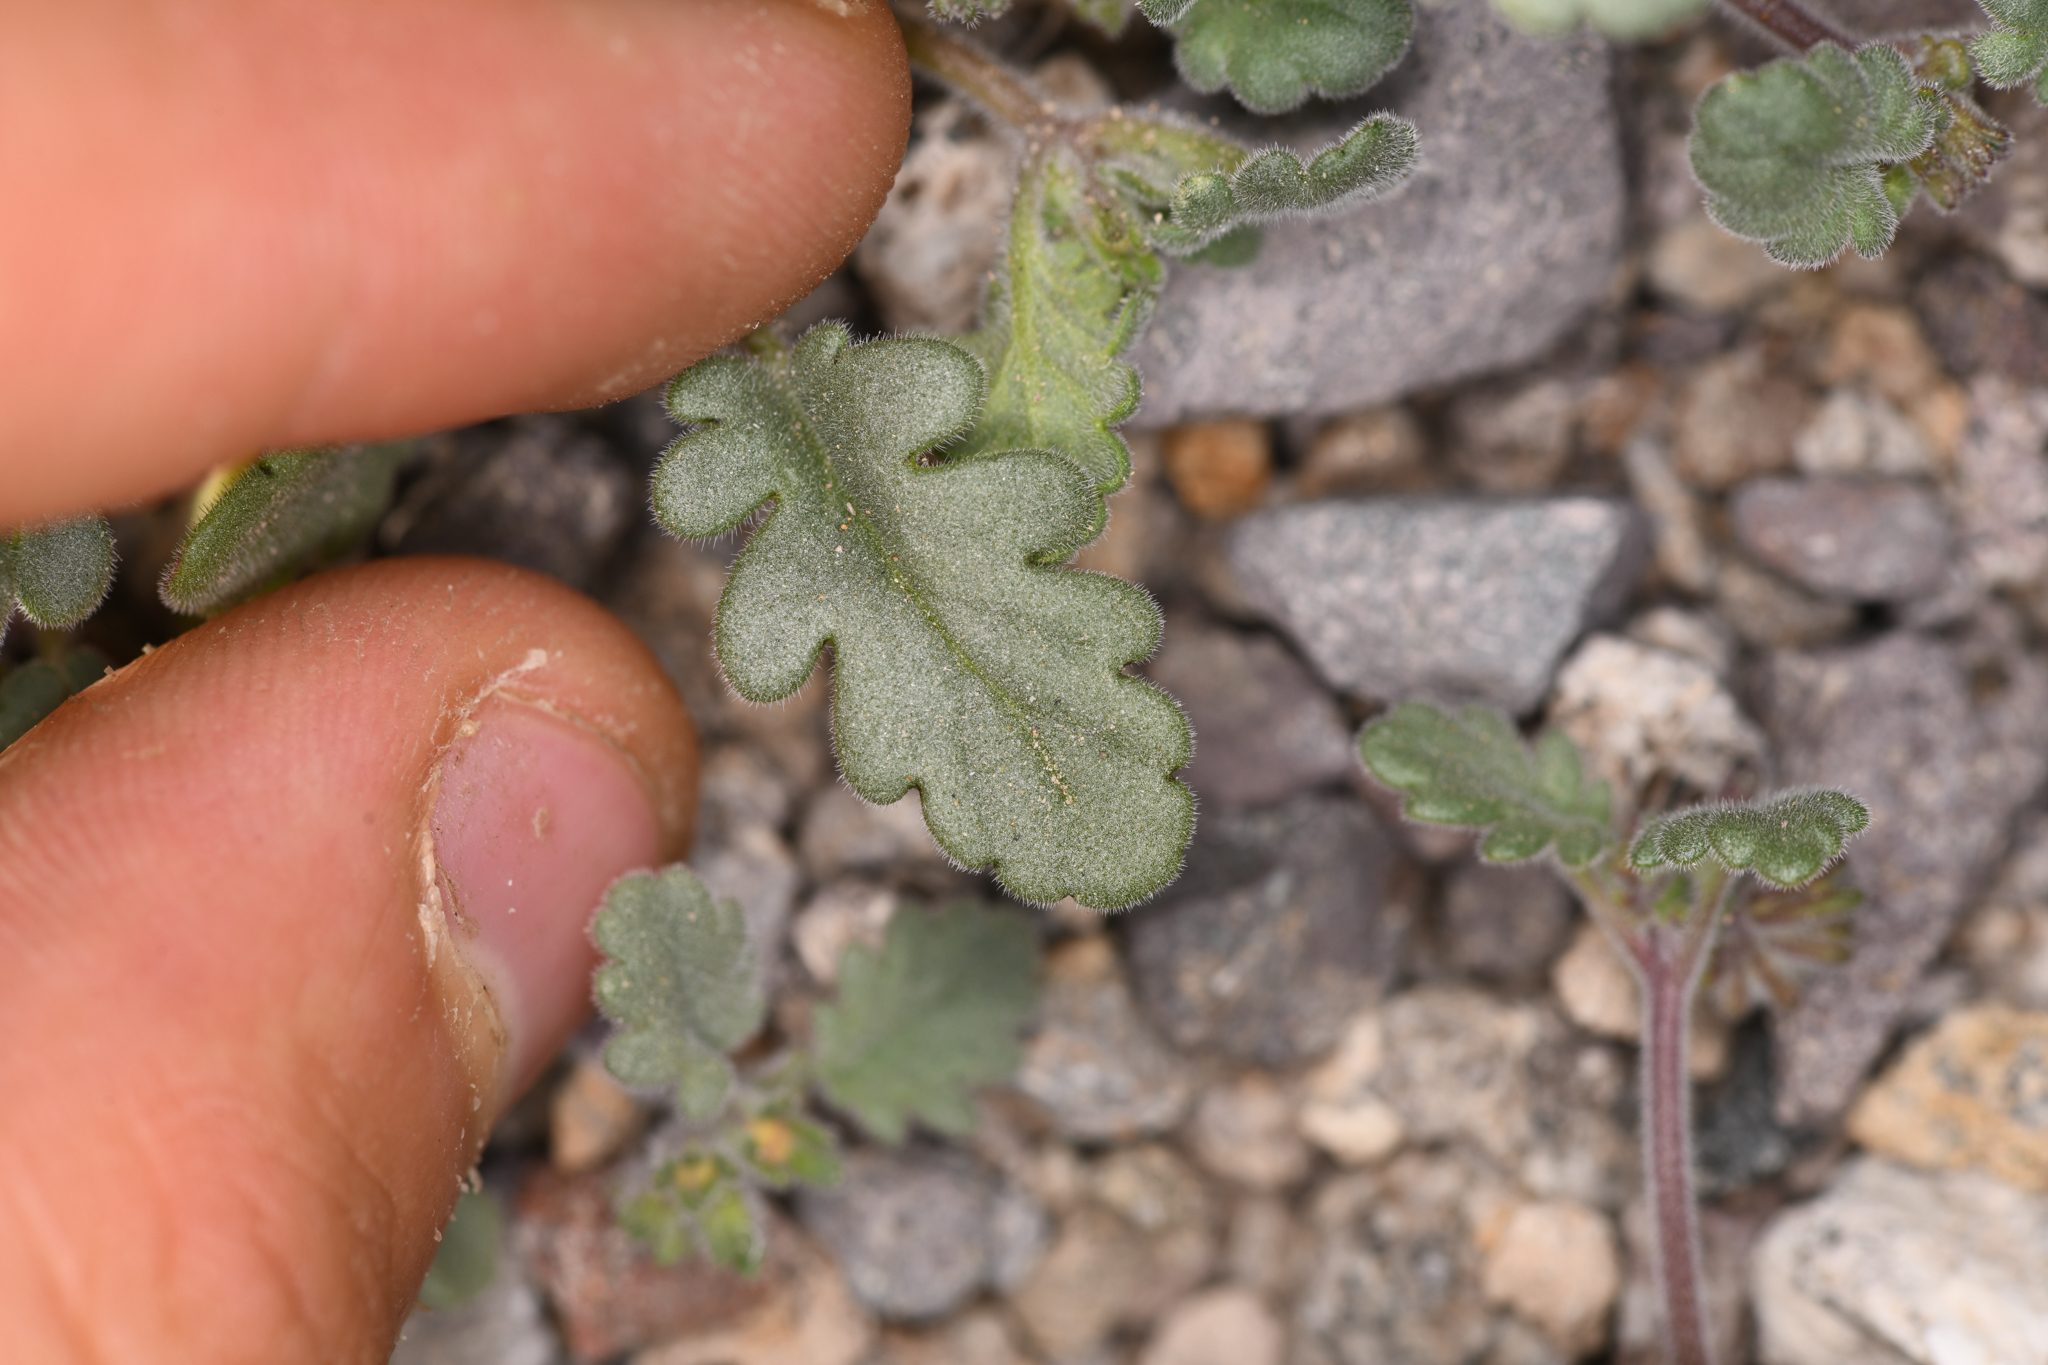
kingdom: Plantae
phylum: Tracheophyta
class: Magnoliopsida
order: Boraginales
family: Hydrophyllaceae
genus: Phacelia
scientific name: Phacelia gymnoclada
